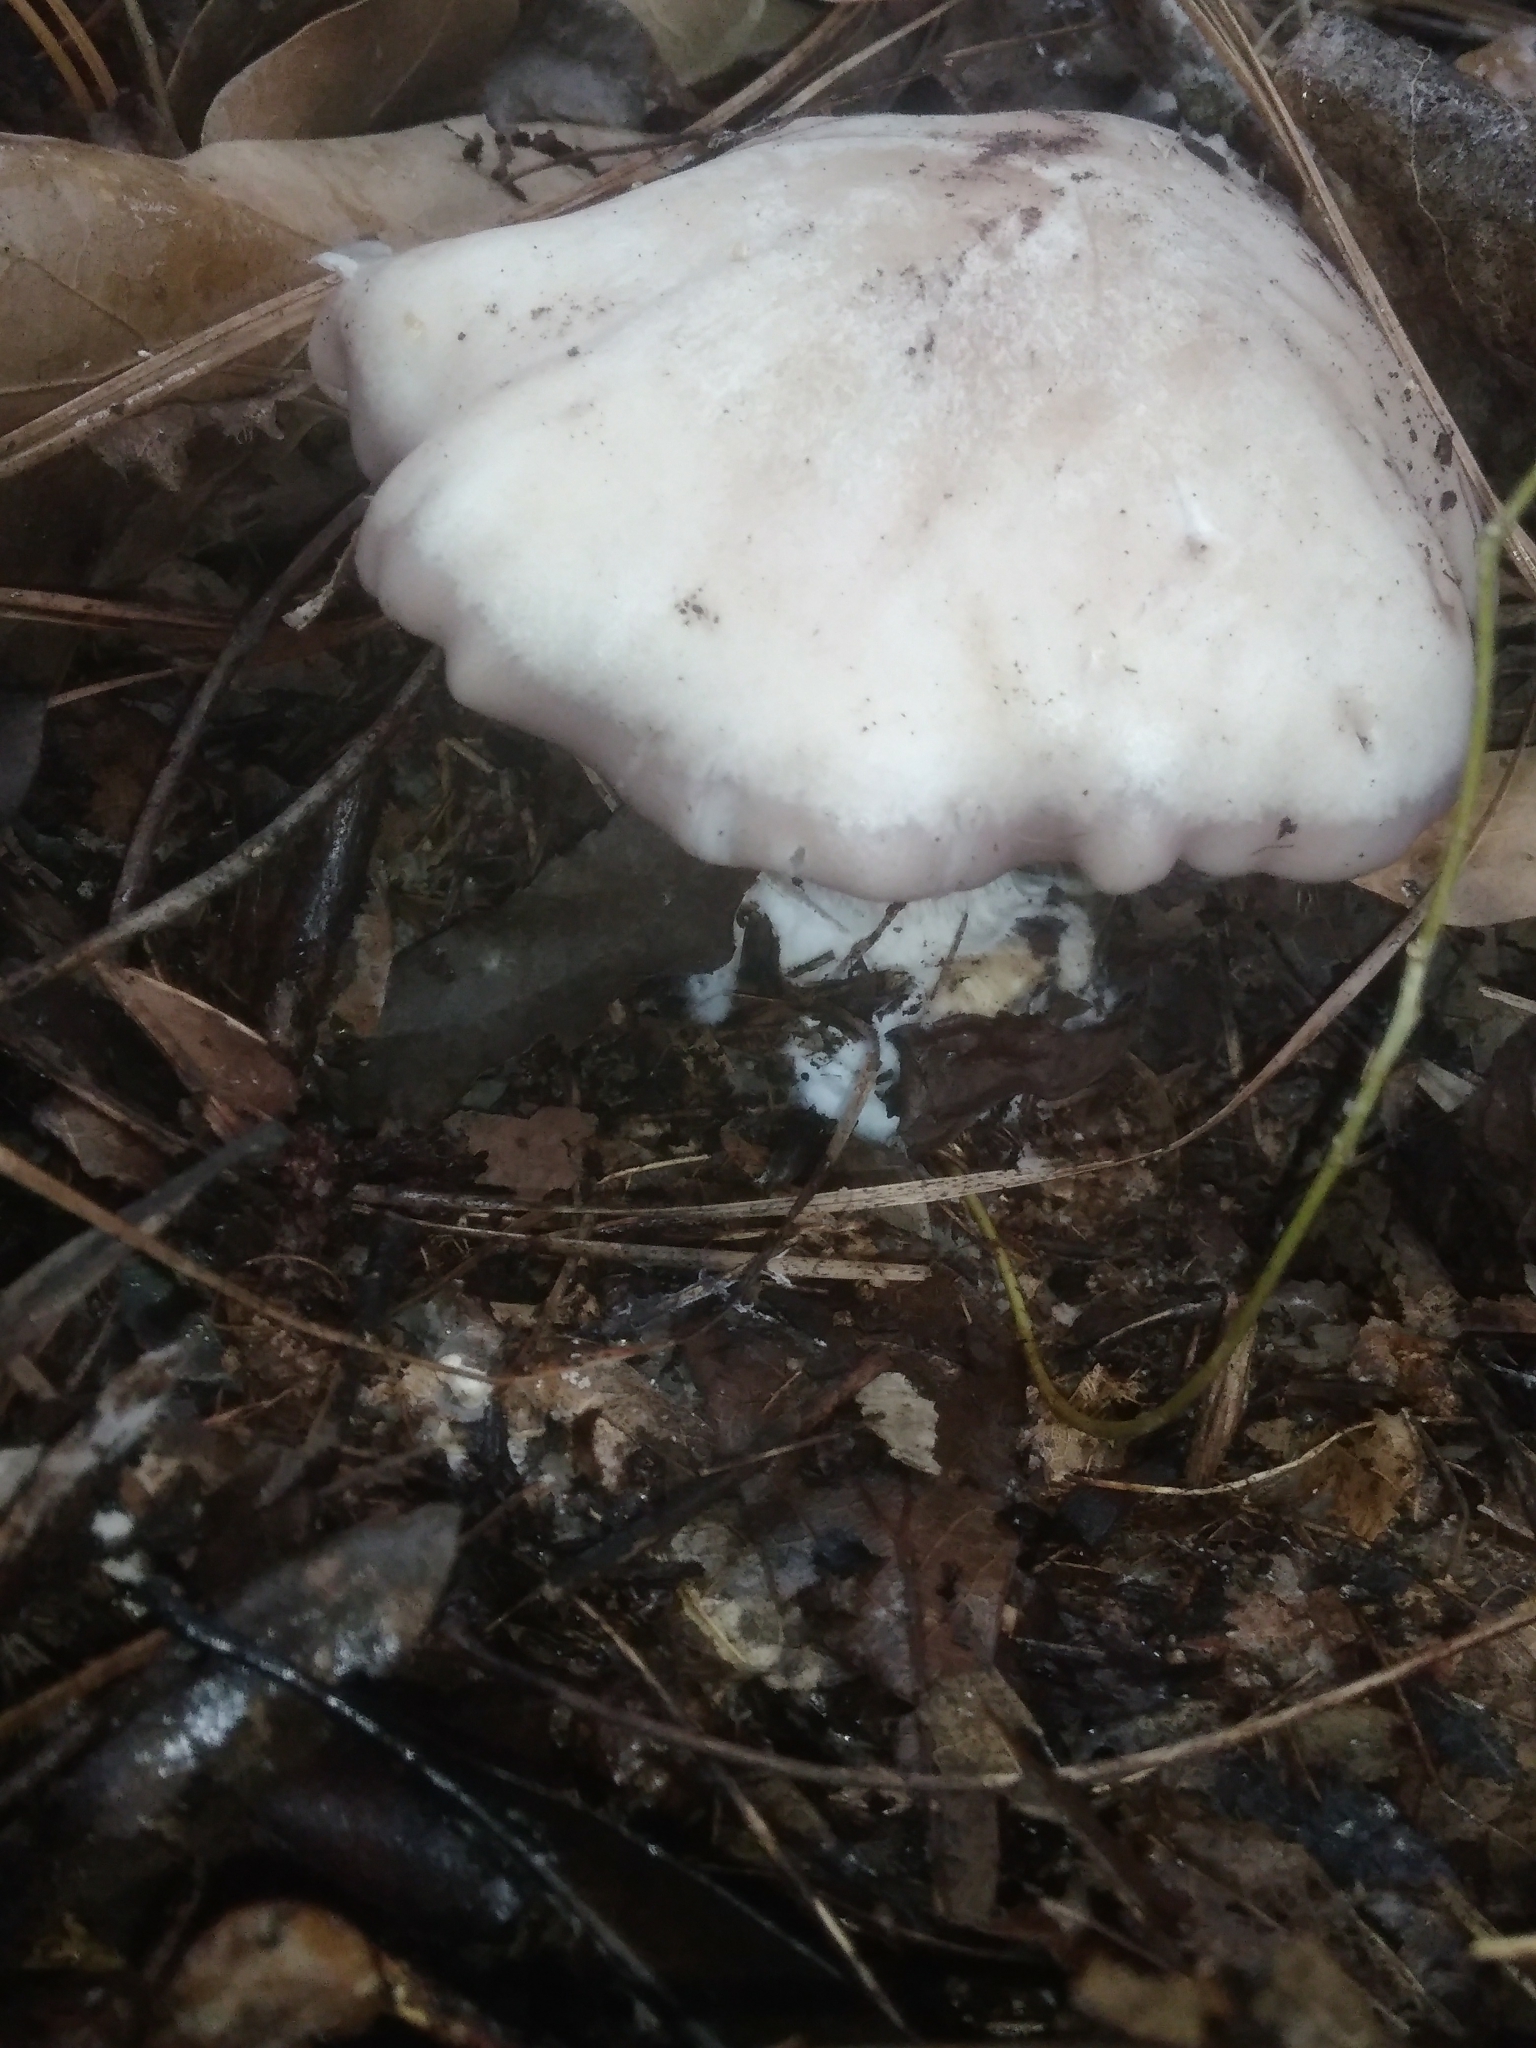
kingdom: Fungi
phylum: Basidiomycota
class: Agaricomycetes
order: Agaricales
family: Tricholomataceae
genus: Collybia
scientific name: Collybia
